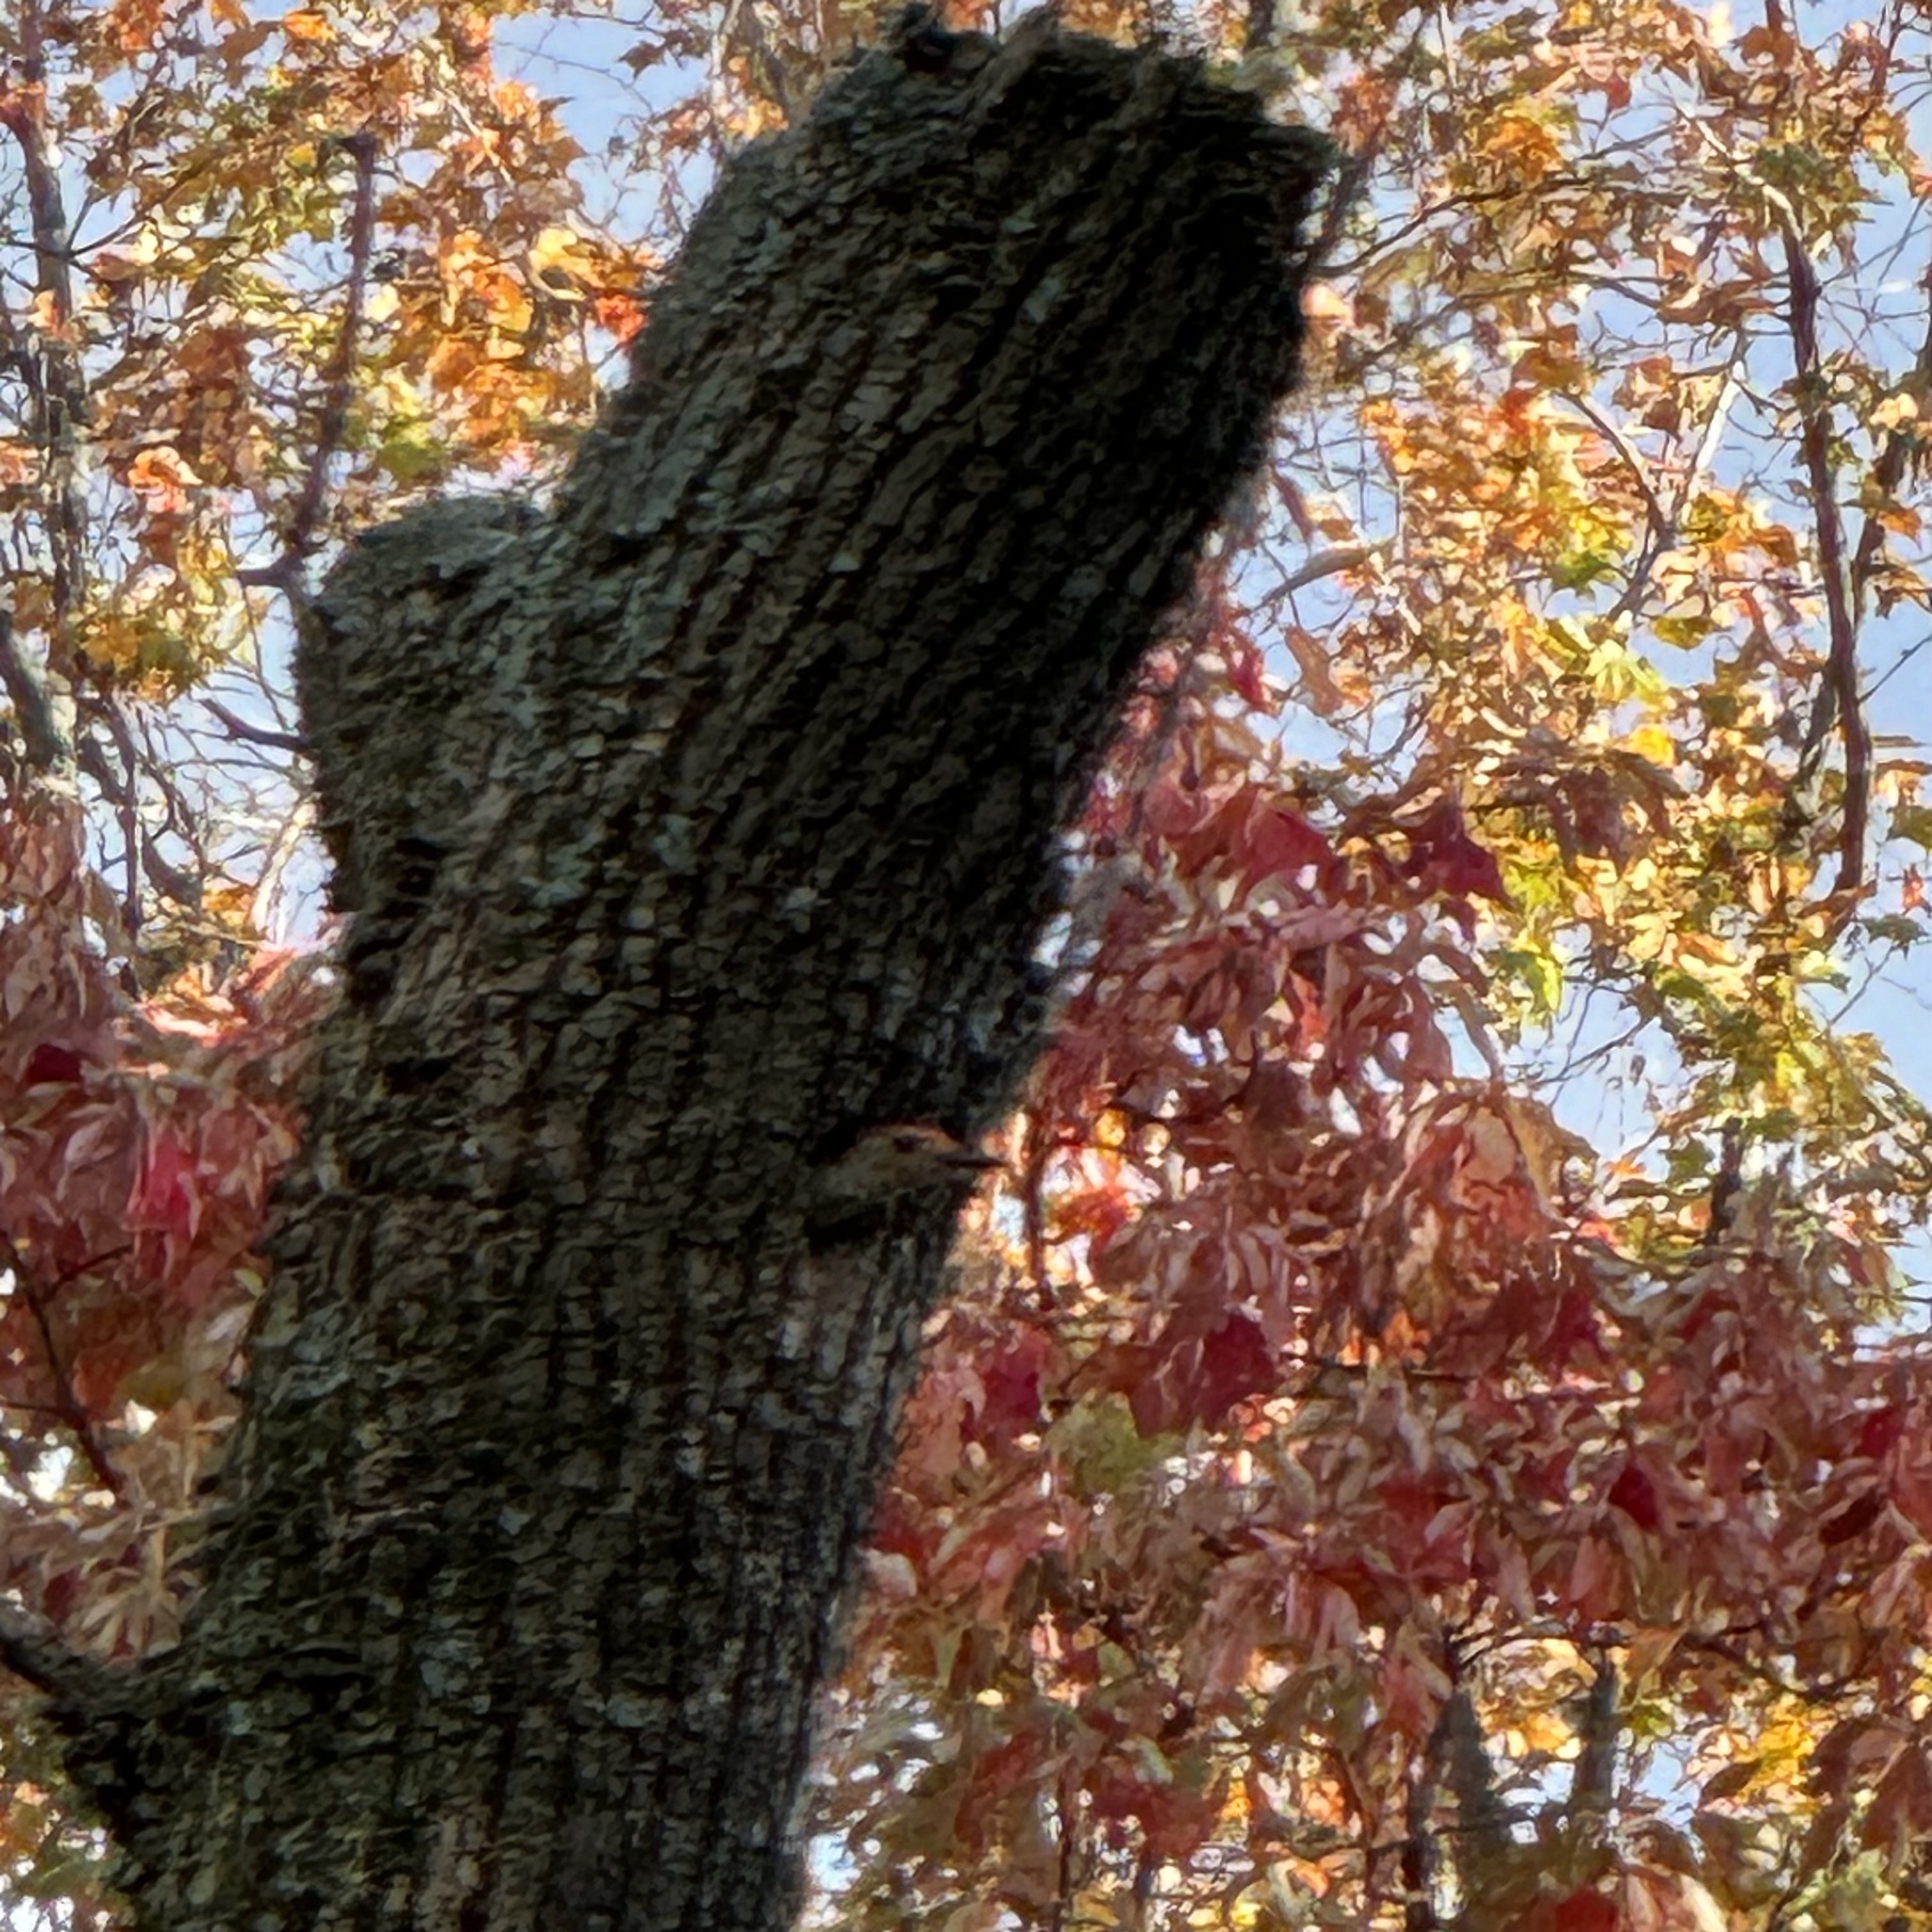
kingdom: Animalia
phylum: Chordata
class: Aves
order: Piciformes
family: Picidae
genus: Melanerpes
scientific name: Melanerpes carolinus
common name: Red-bellied woodpecker
